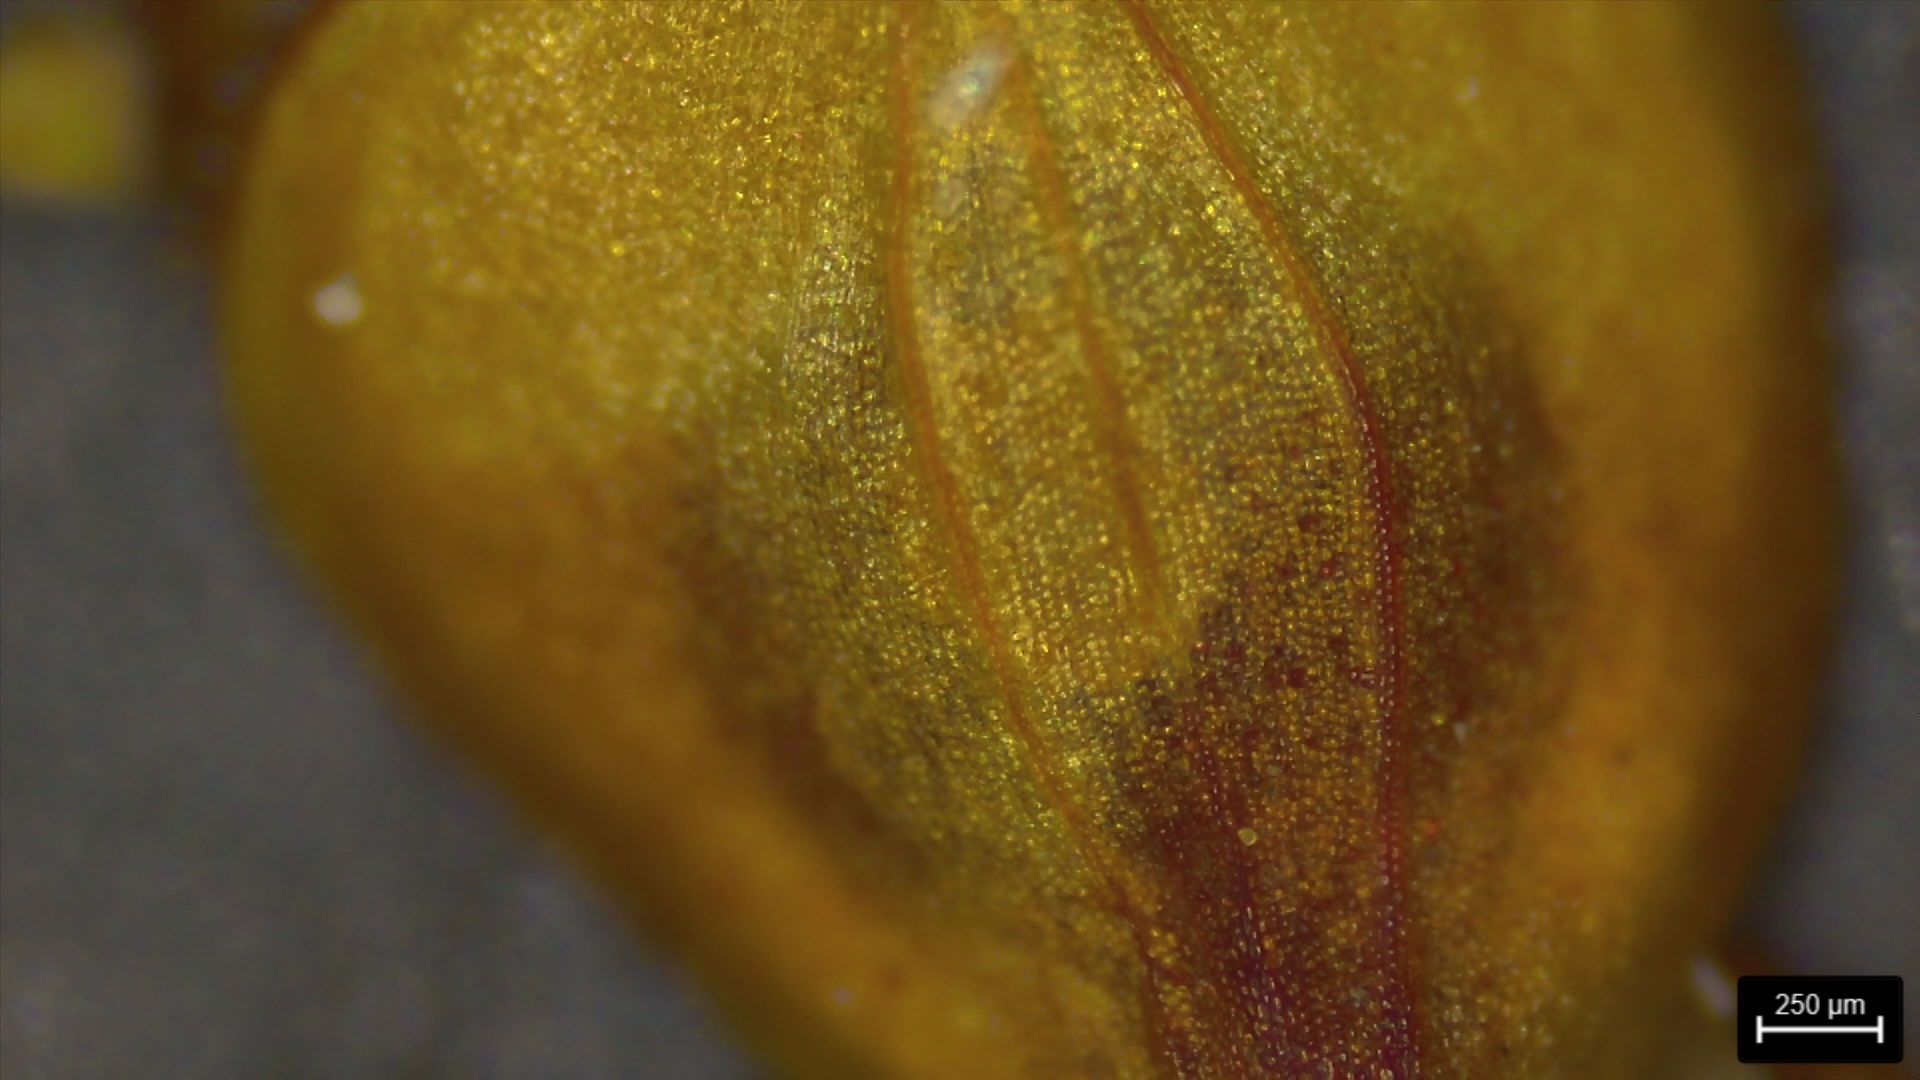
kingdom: Plantae
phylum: Tracheophyta
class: Liliopsida
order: Poales
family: Cyperaceae
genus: Carex
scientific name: Carex triangularis
